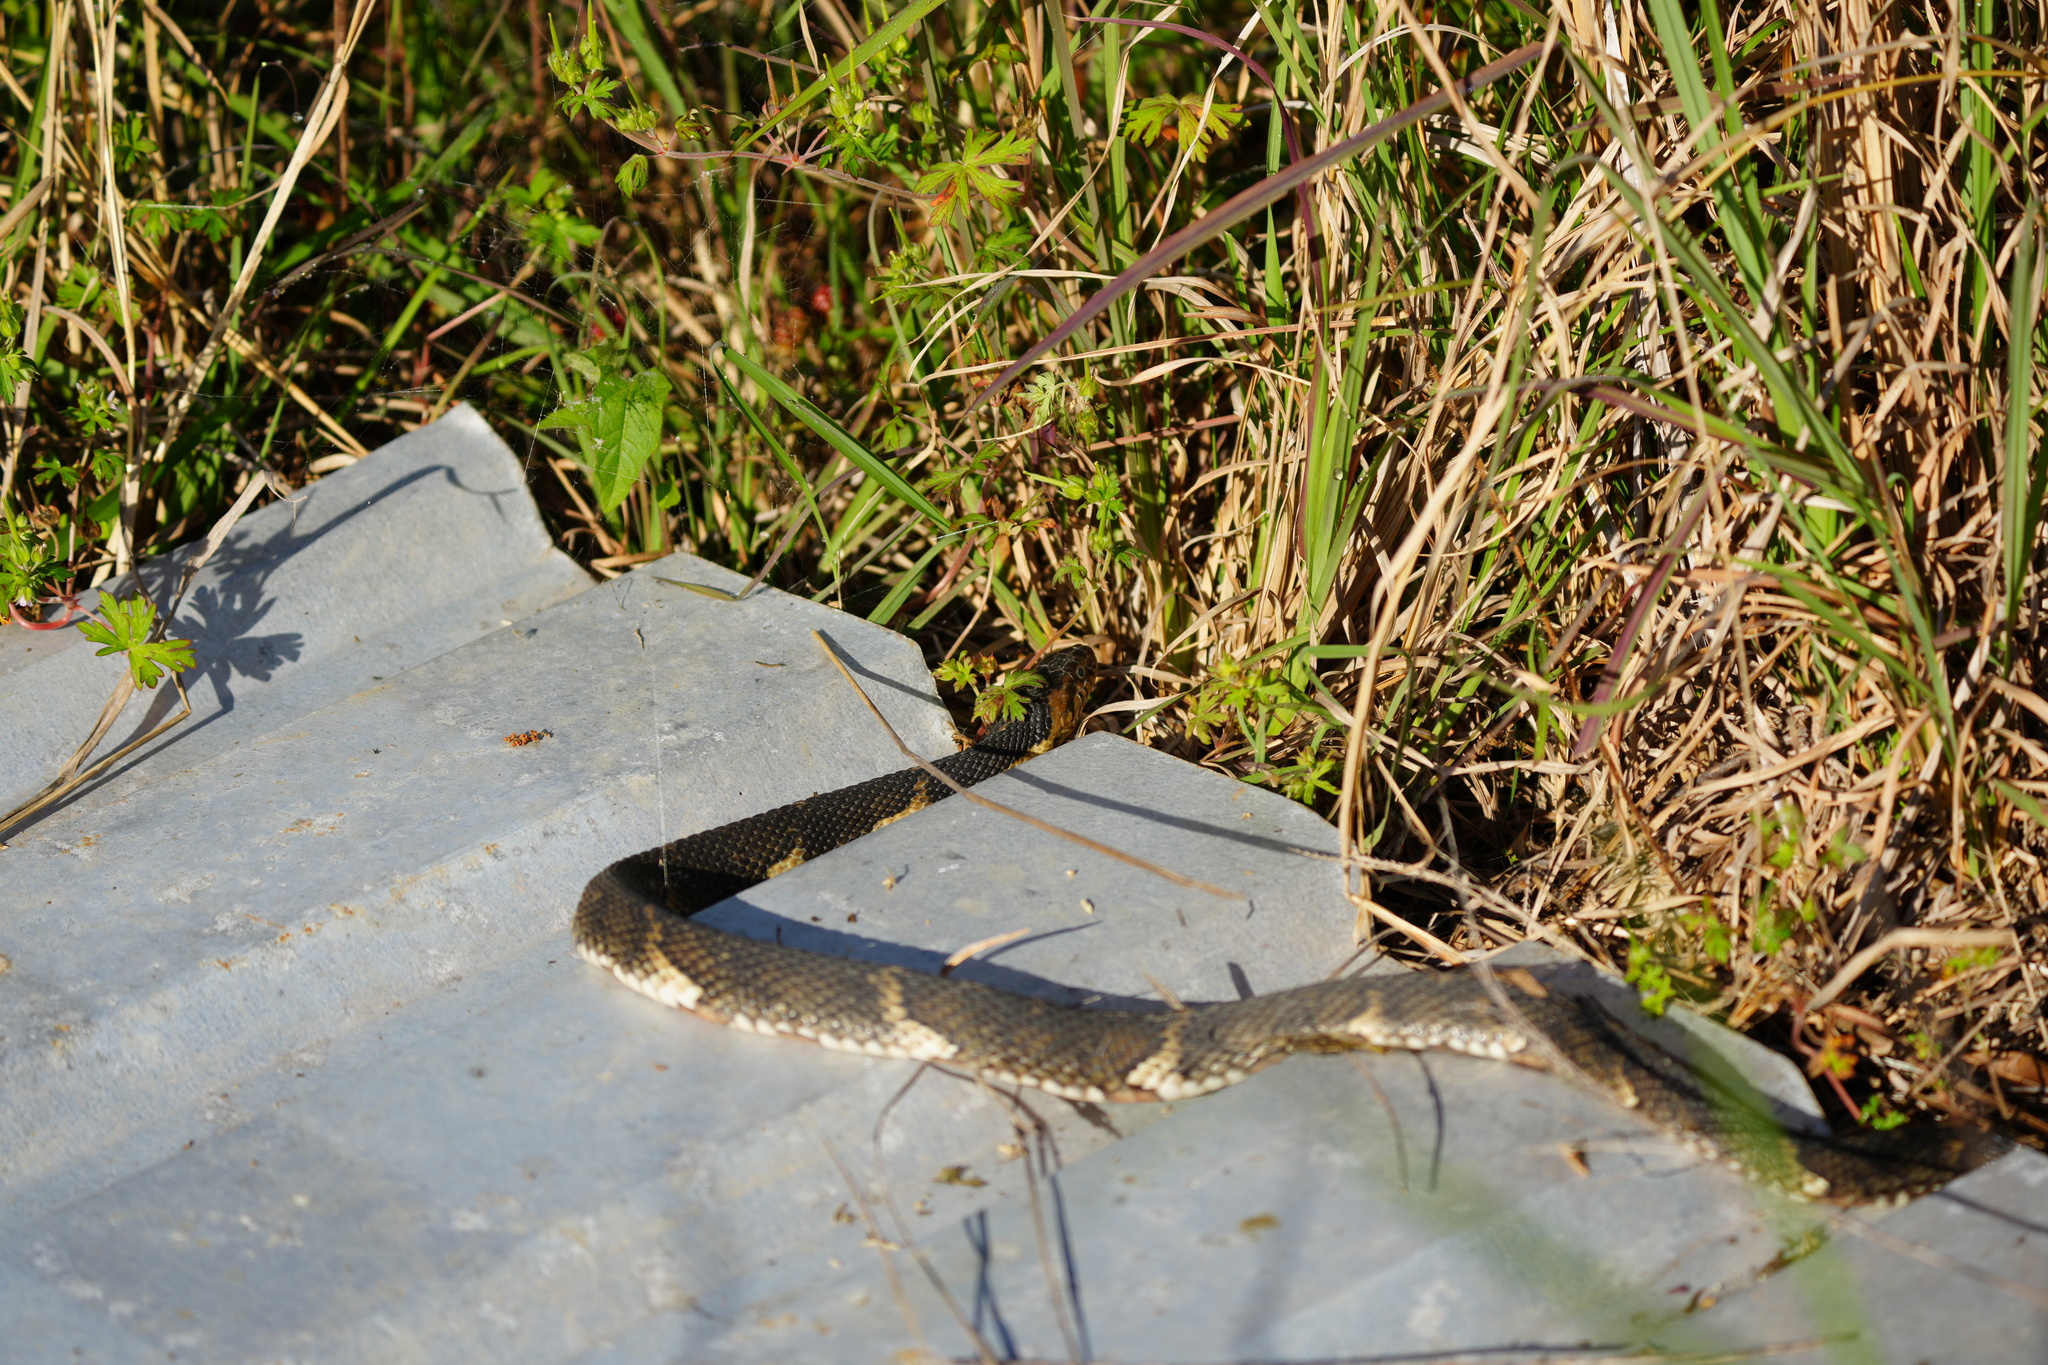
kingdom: Animalia
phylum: Chordata
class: Squamata
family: Colubridae
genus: Nerodia
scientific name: Nerodia fasciata
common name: Southern water snake
